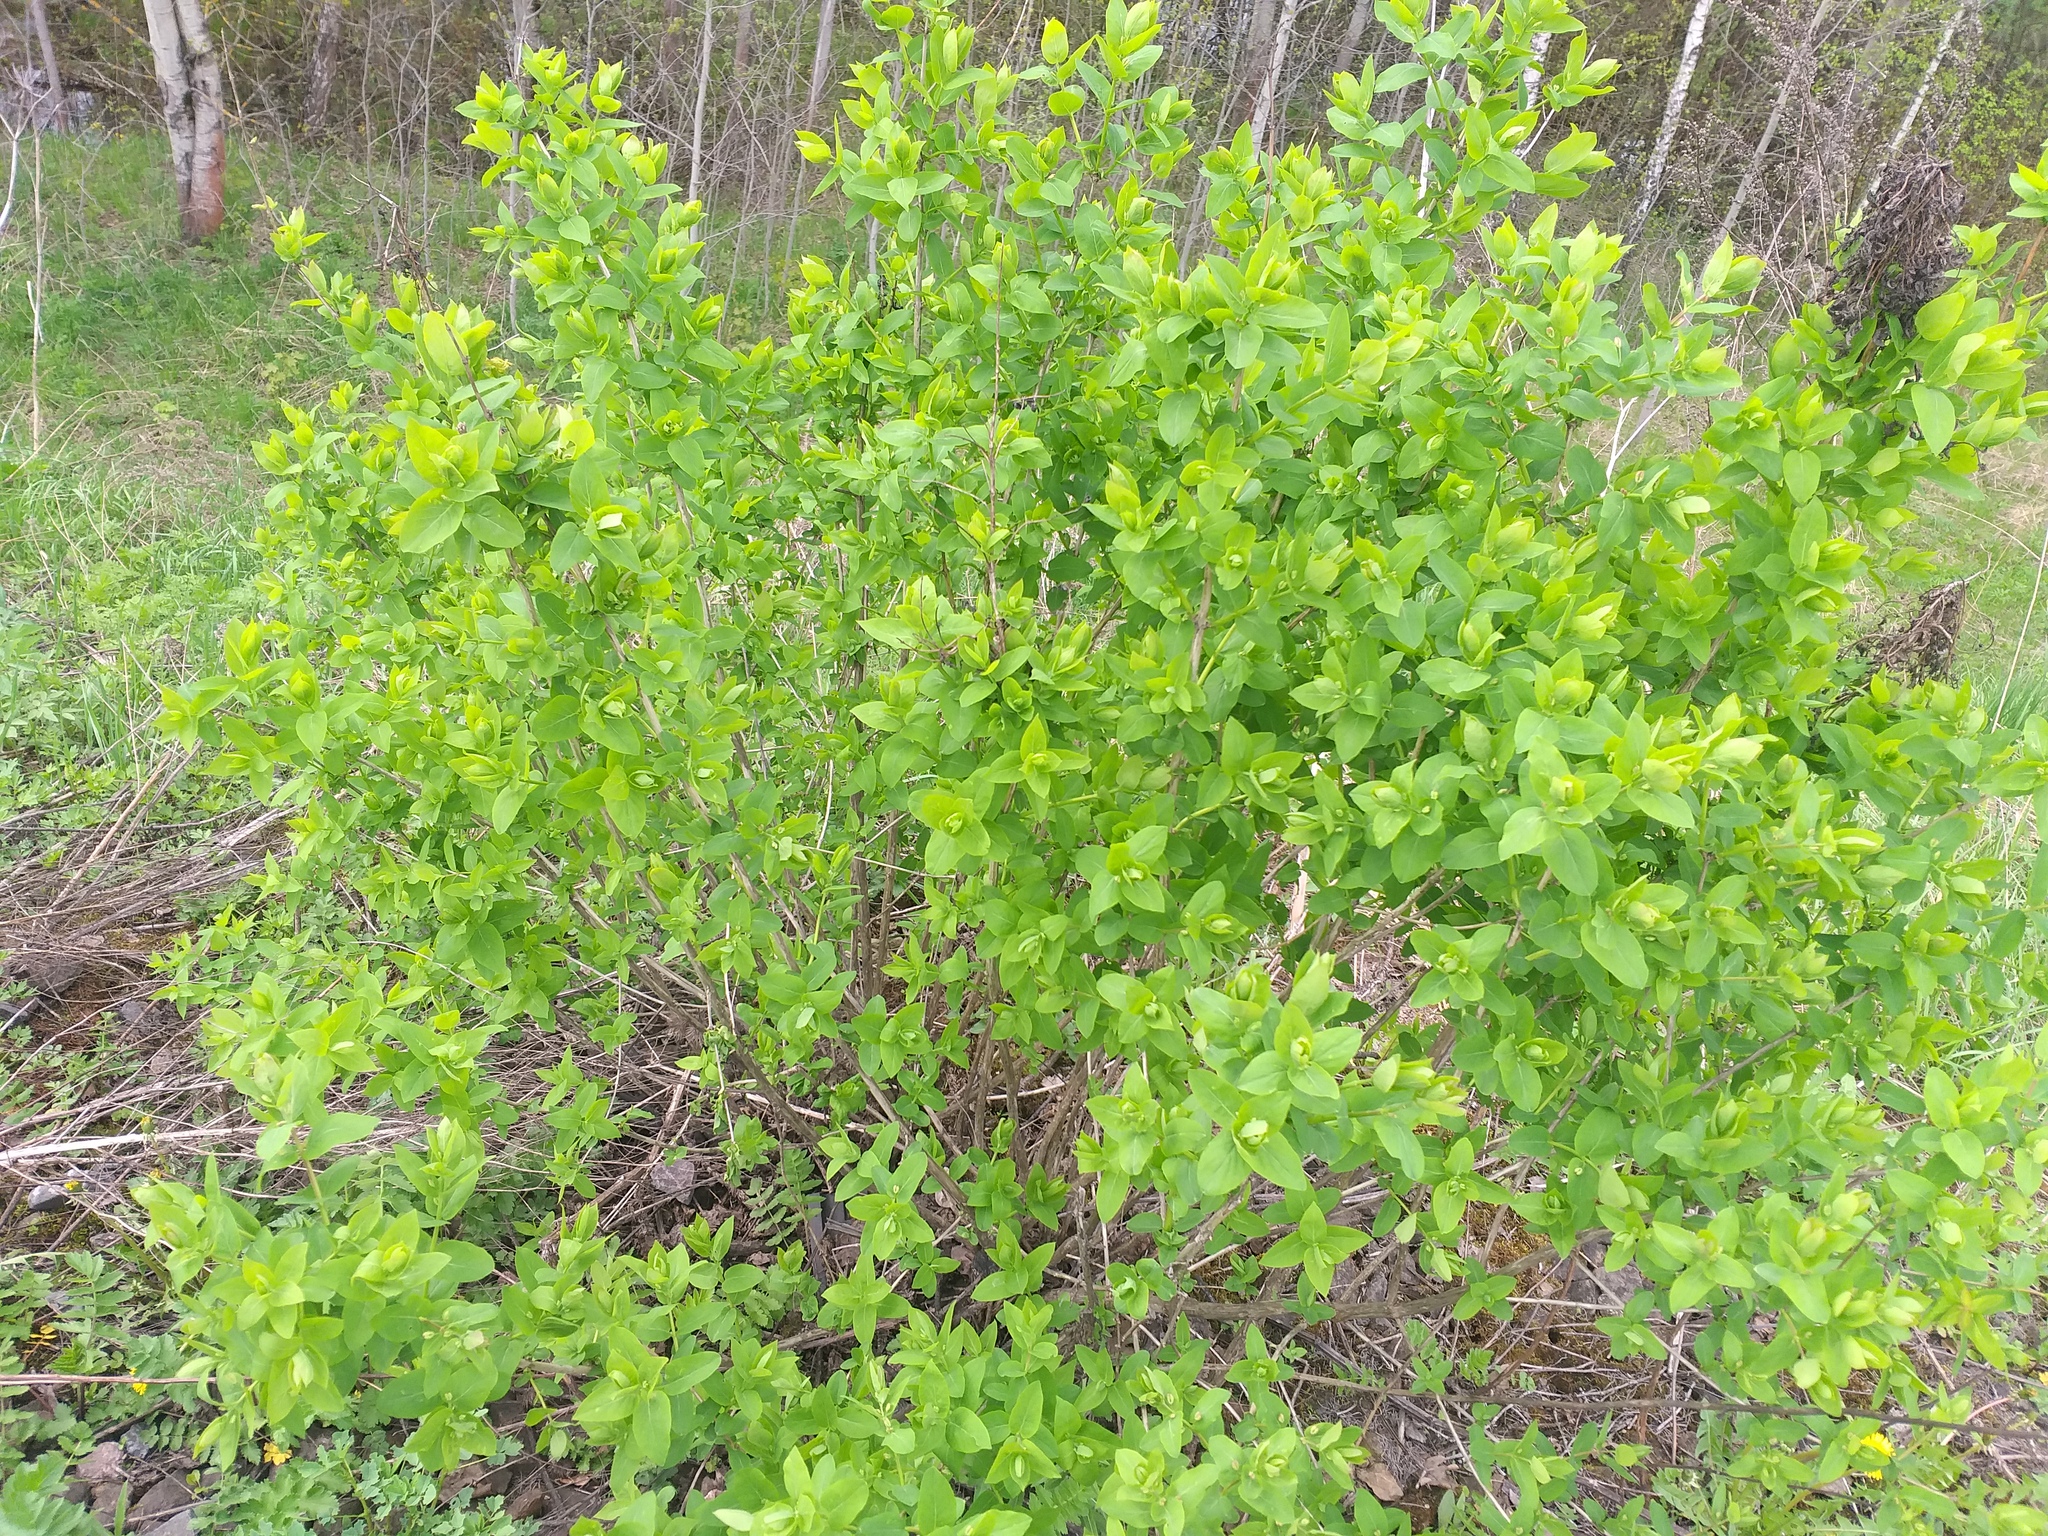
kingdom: Plantae
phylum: Tracheophyta
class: Magnoliopsida
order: Dipsacales
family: Caprifoliaceae
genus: Lonicera
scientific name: Lonicera tatarica
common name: Tatarian honeysuckle
